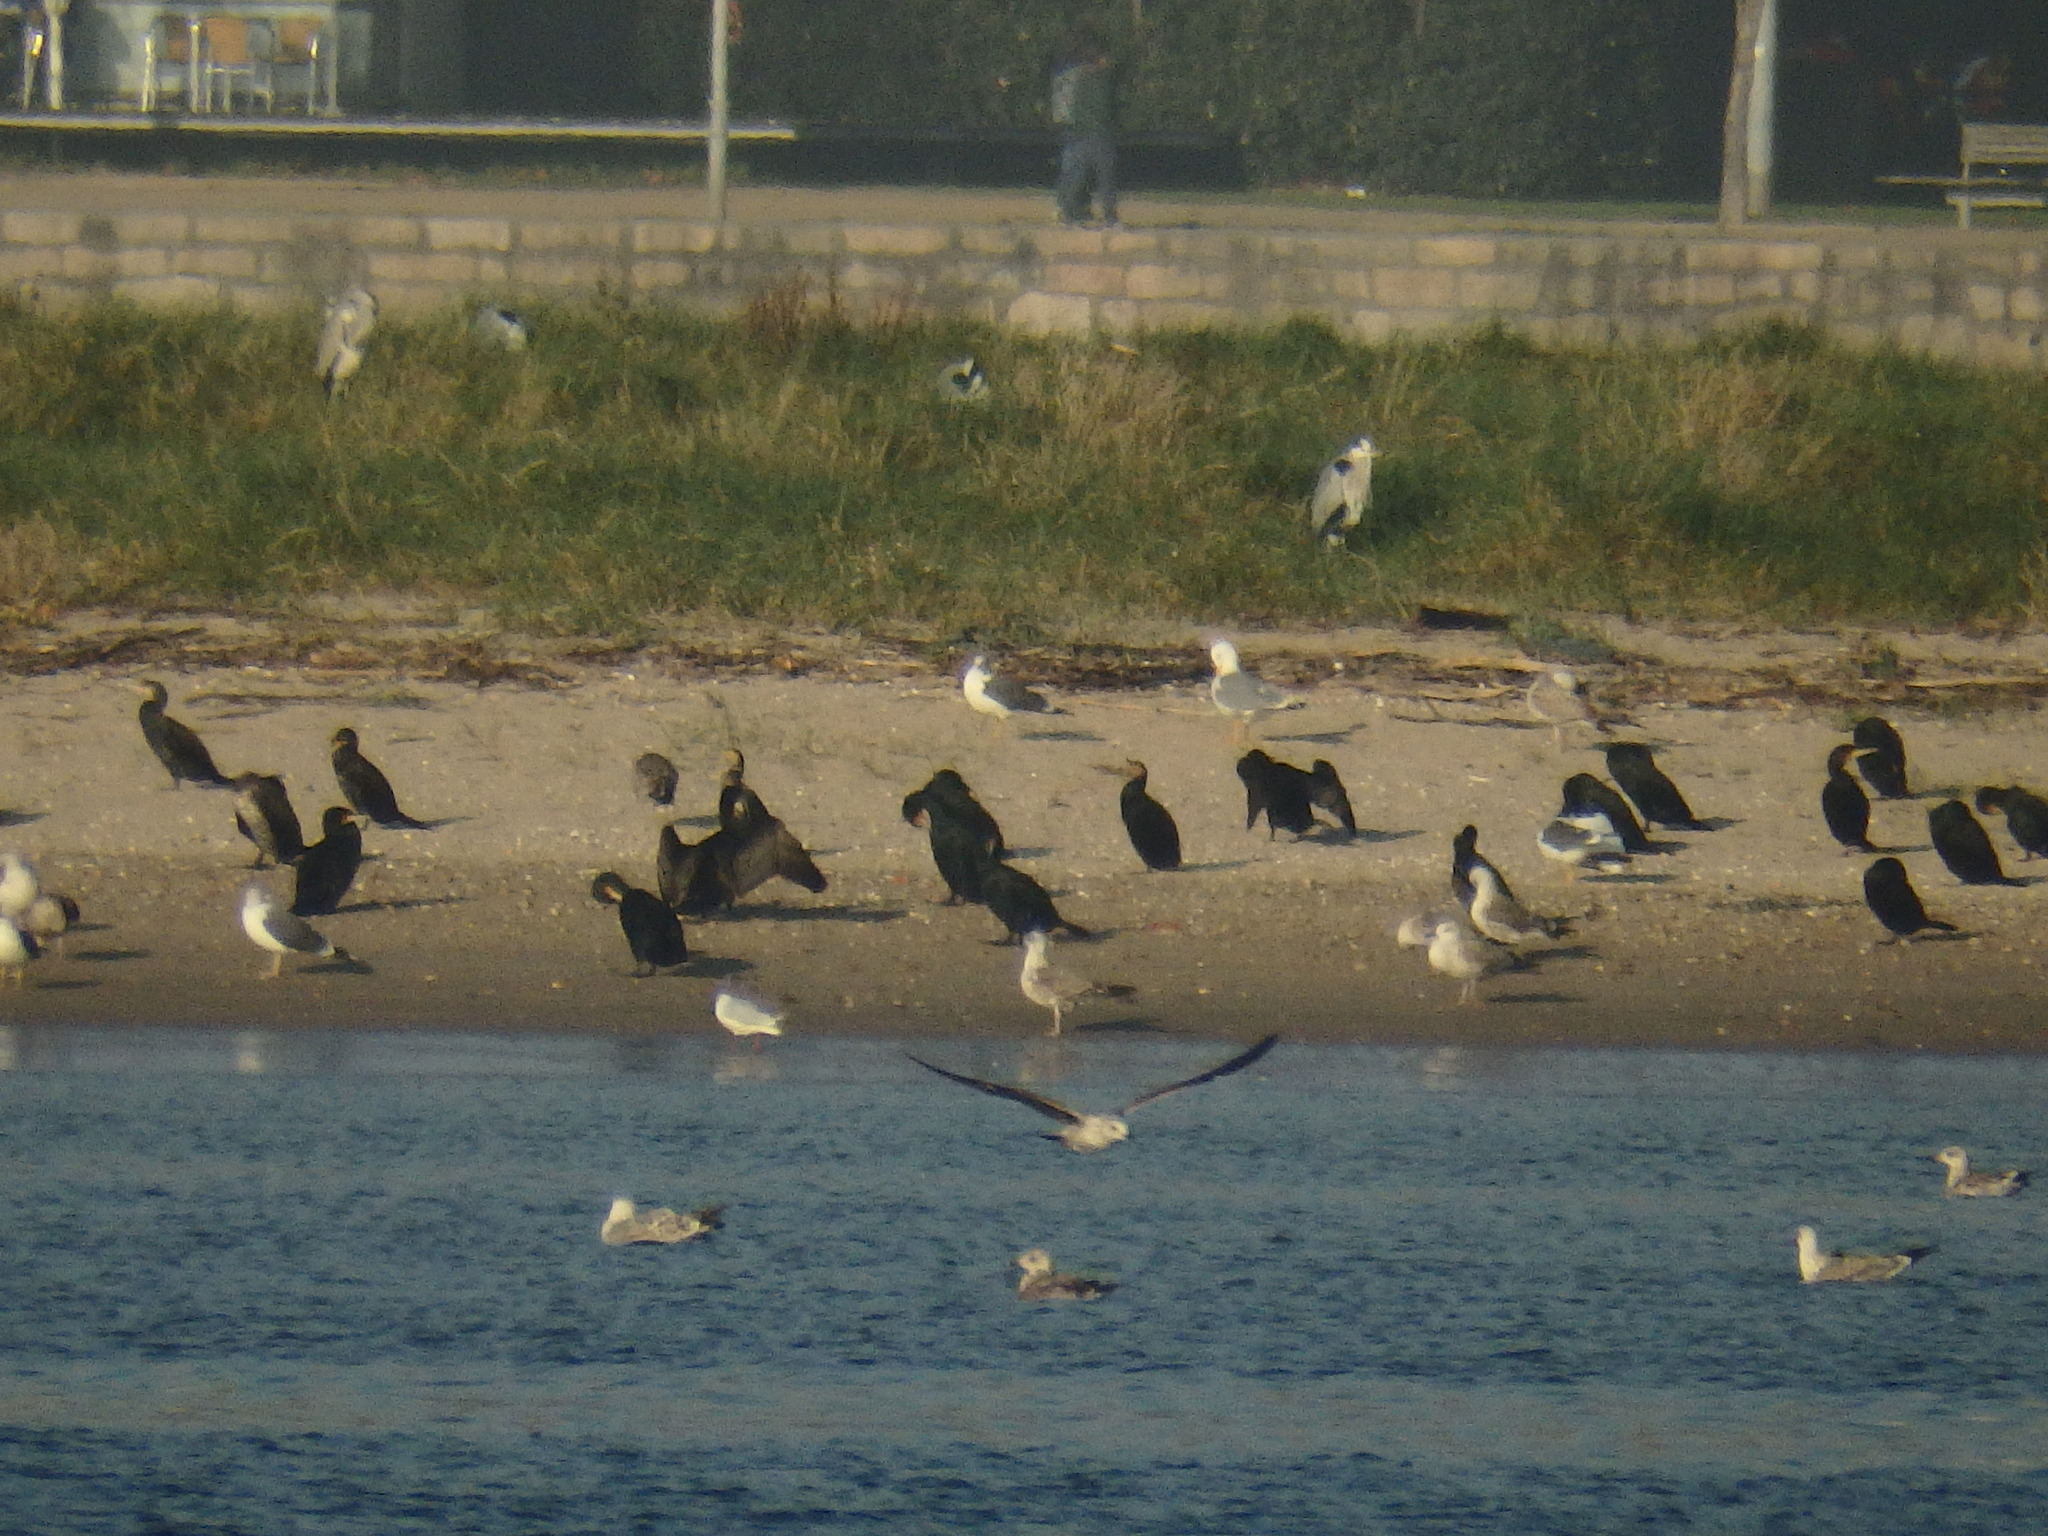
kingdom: Animalia
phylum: Chordata
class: Aves
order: Suliformes
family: Phalacrocoracidae
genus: Phalacrocorax
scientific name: Phalacrocorax carbo
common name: Great cormorant
